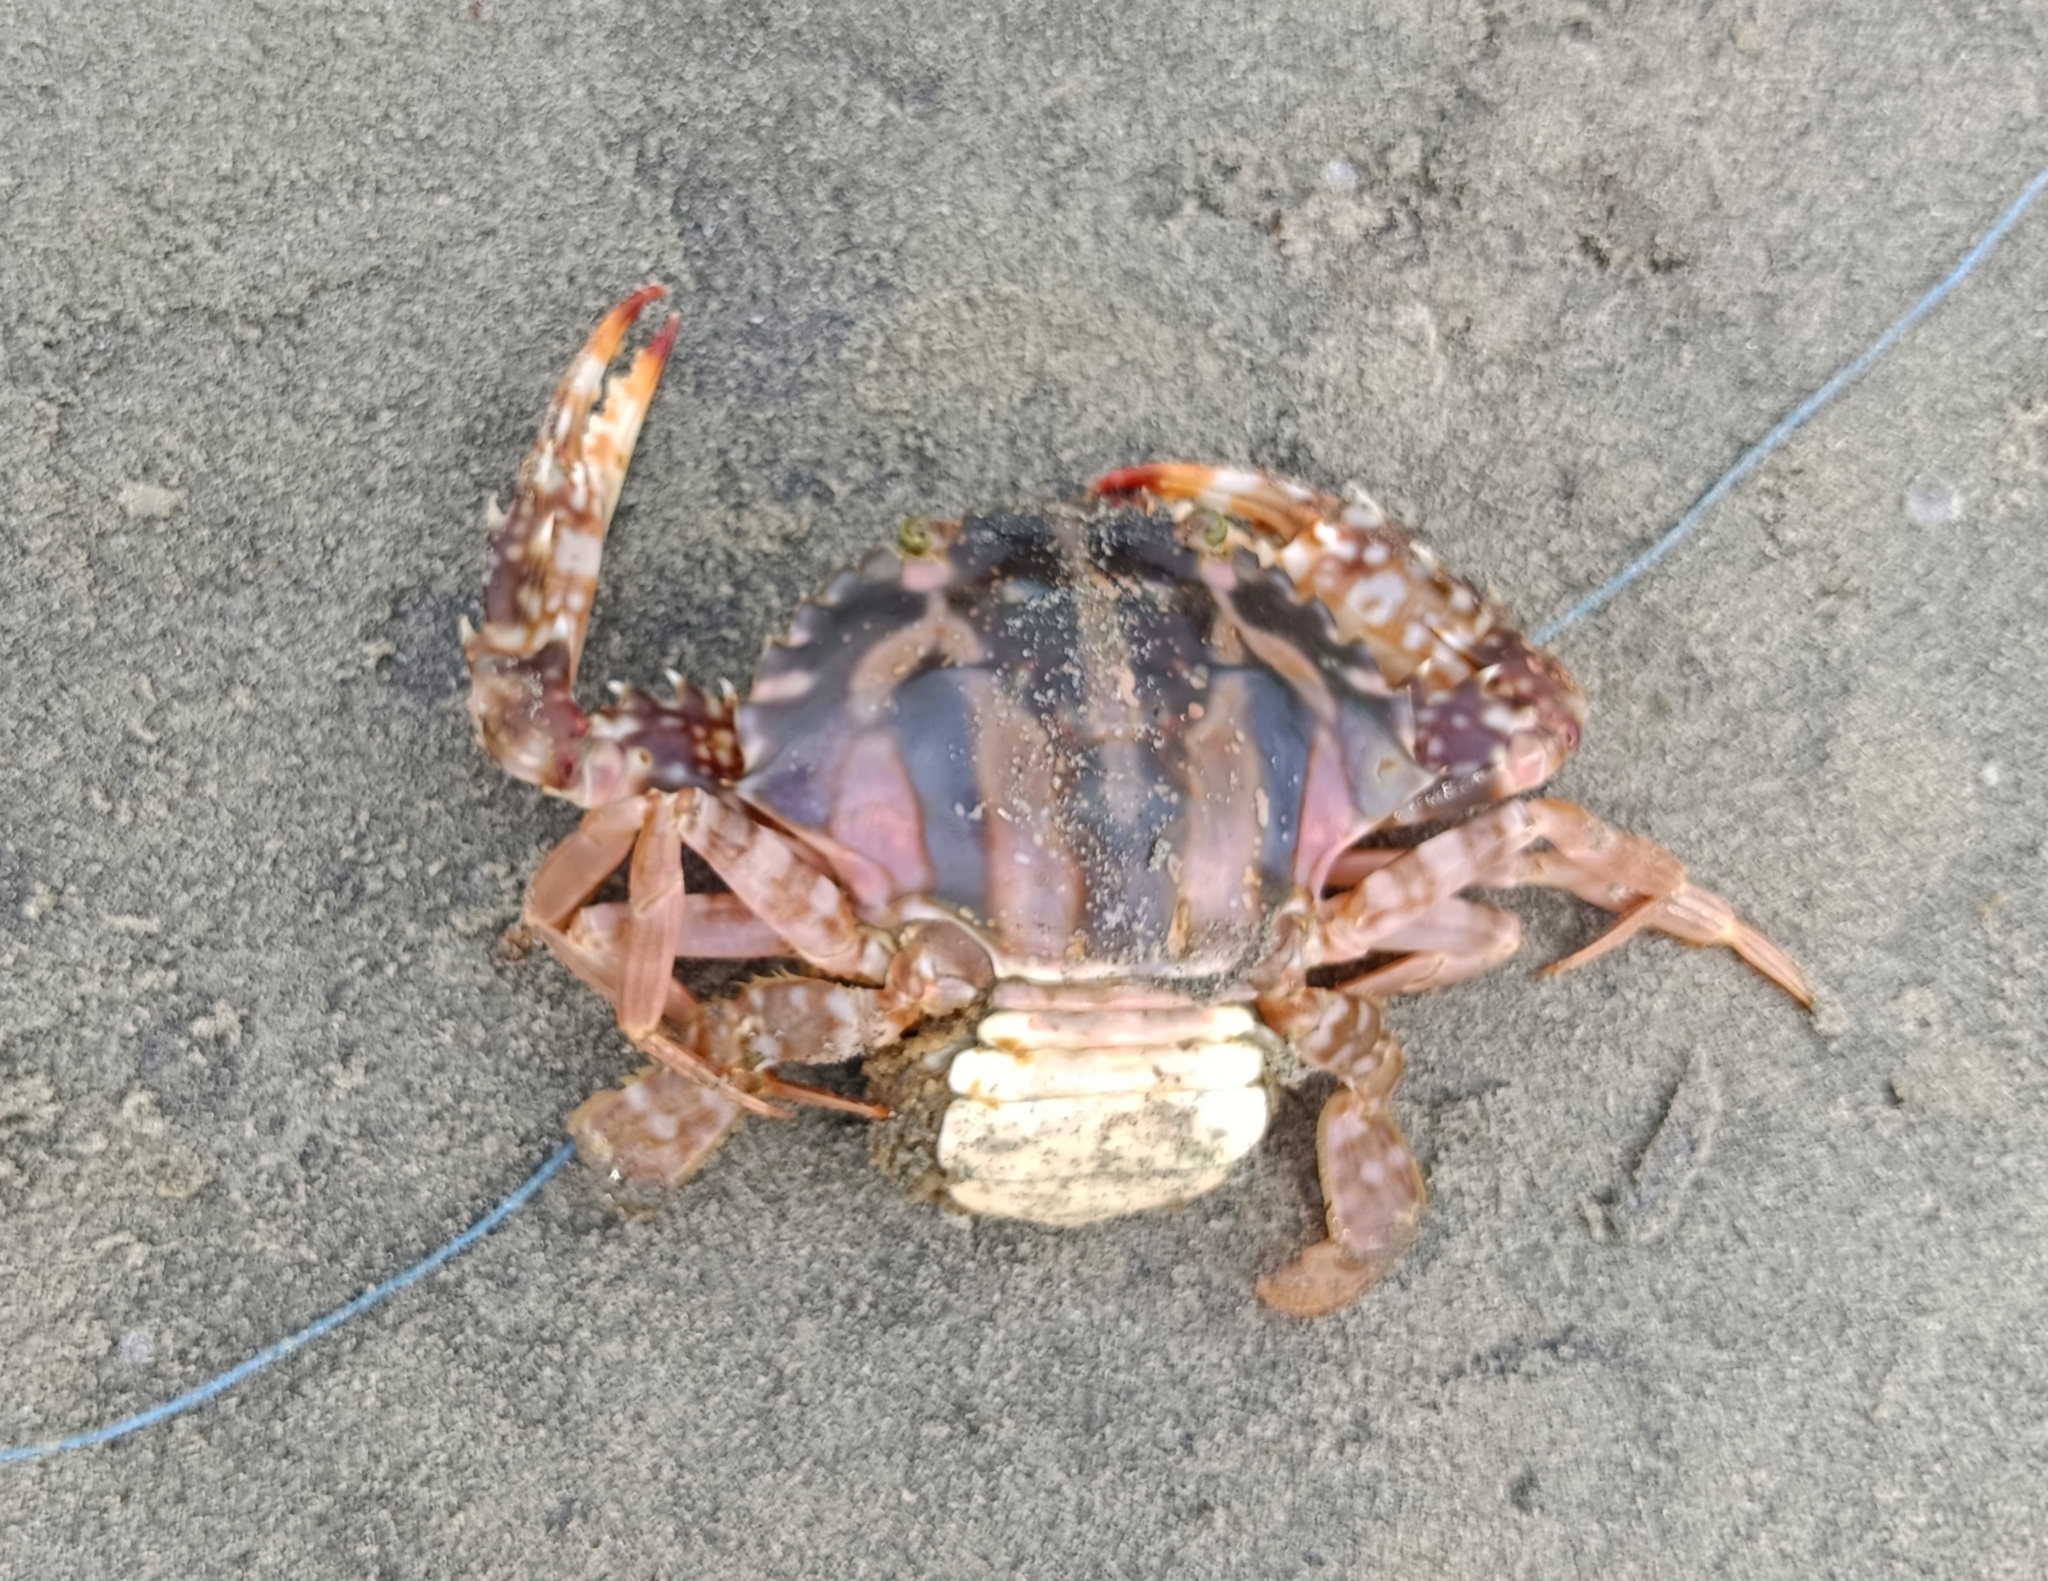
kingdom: Animalia
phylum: Arthropoda
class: Malacostraca
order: Decapoda
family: Portunidae
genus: Charybdis
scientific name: Charybdis feriata
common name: Striped swimming crab
